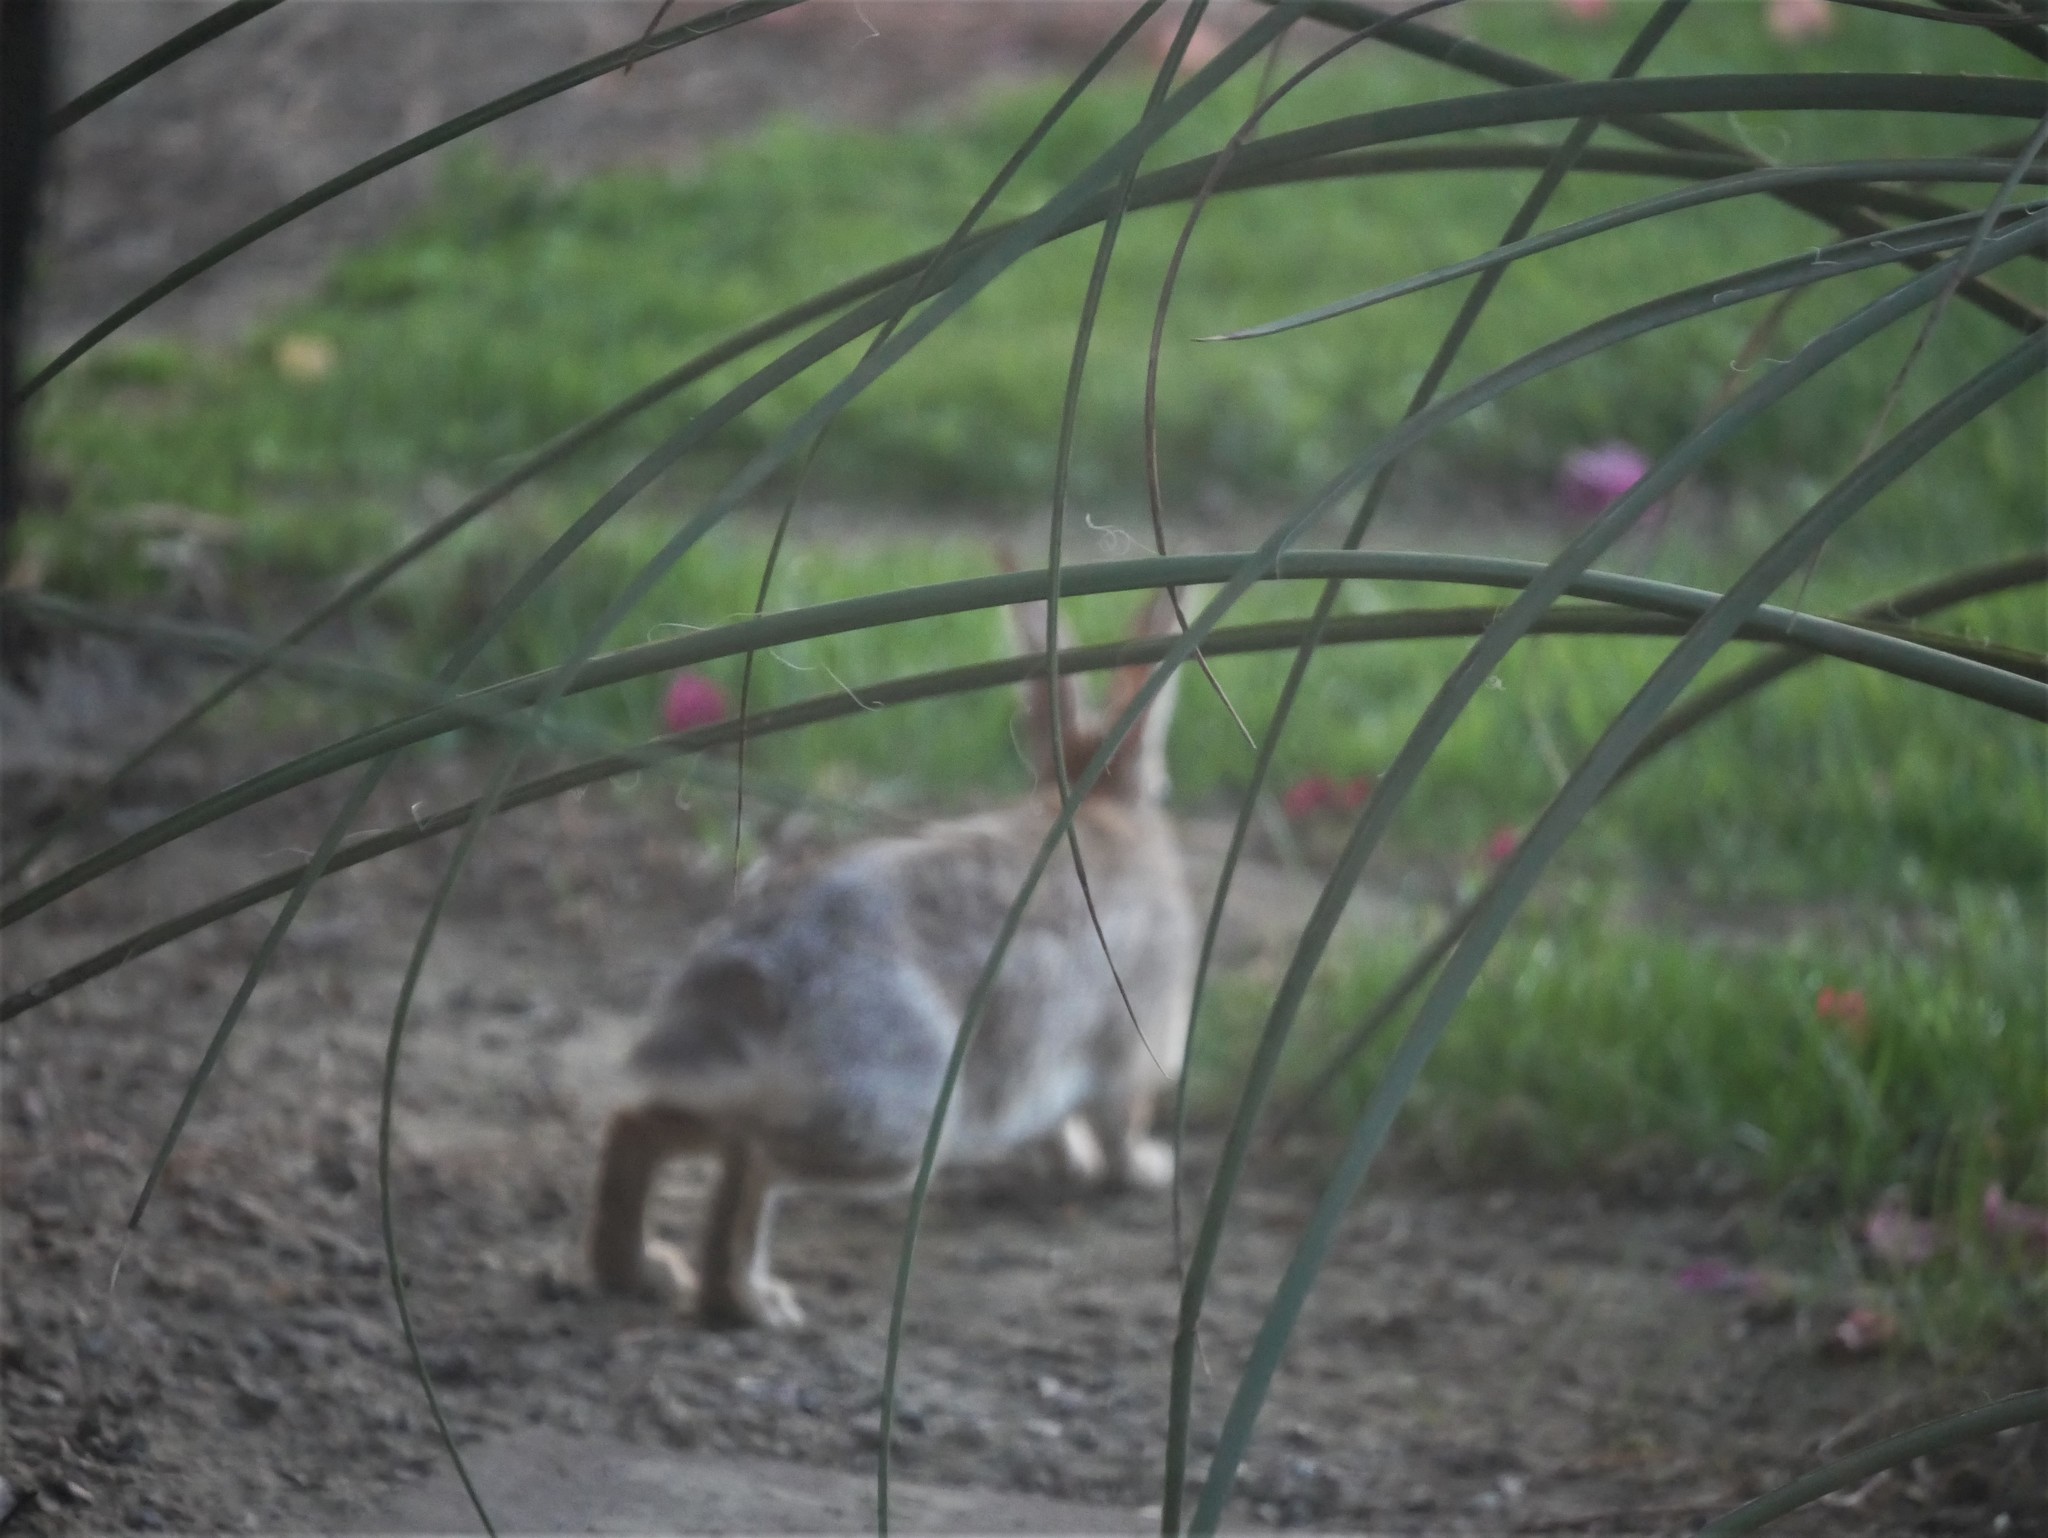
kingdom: Animalia
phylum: Chordata
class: Mammalia
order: Lagomorpha
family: Leporidae
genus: Sylvilagus
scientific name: Sylvilagus audubonii
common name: Desert cottontail
